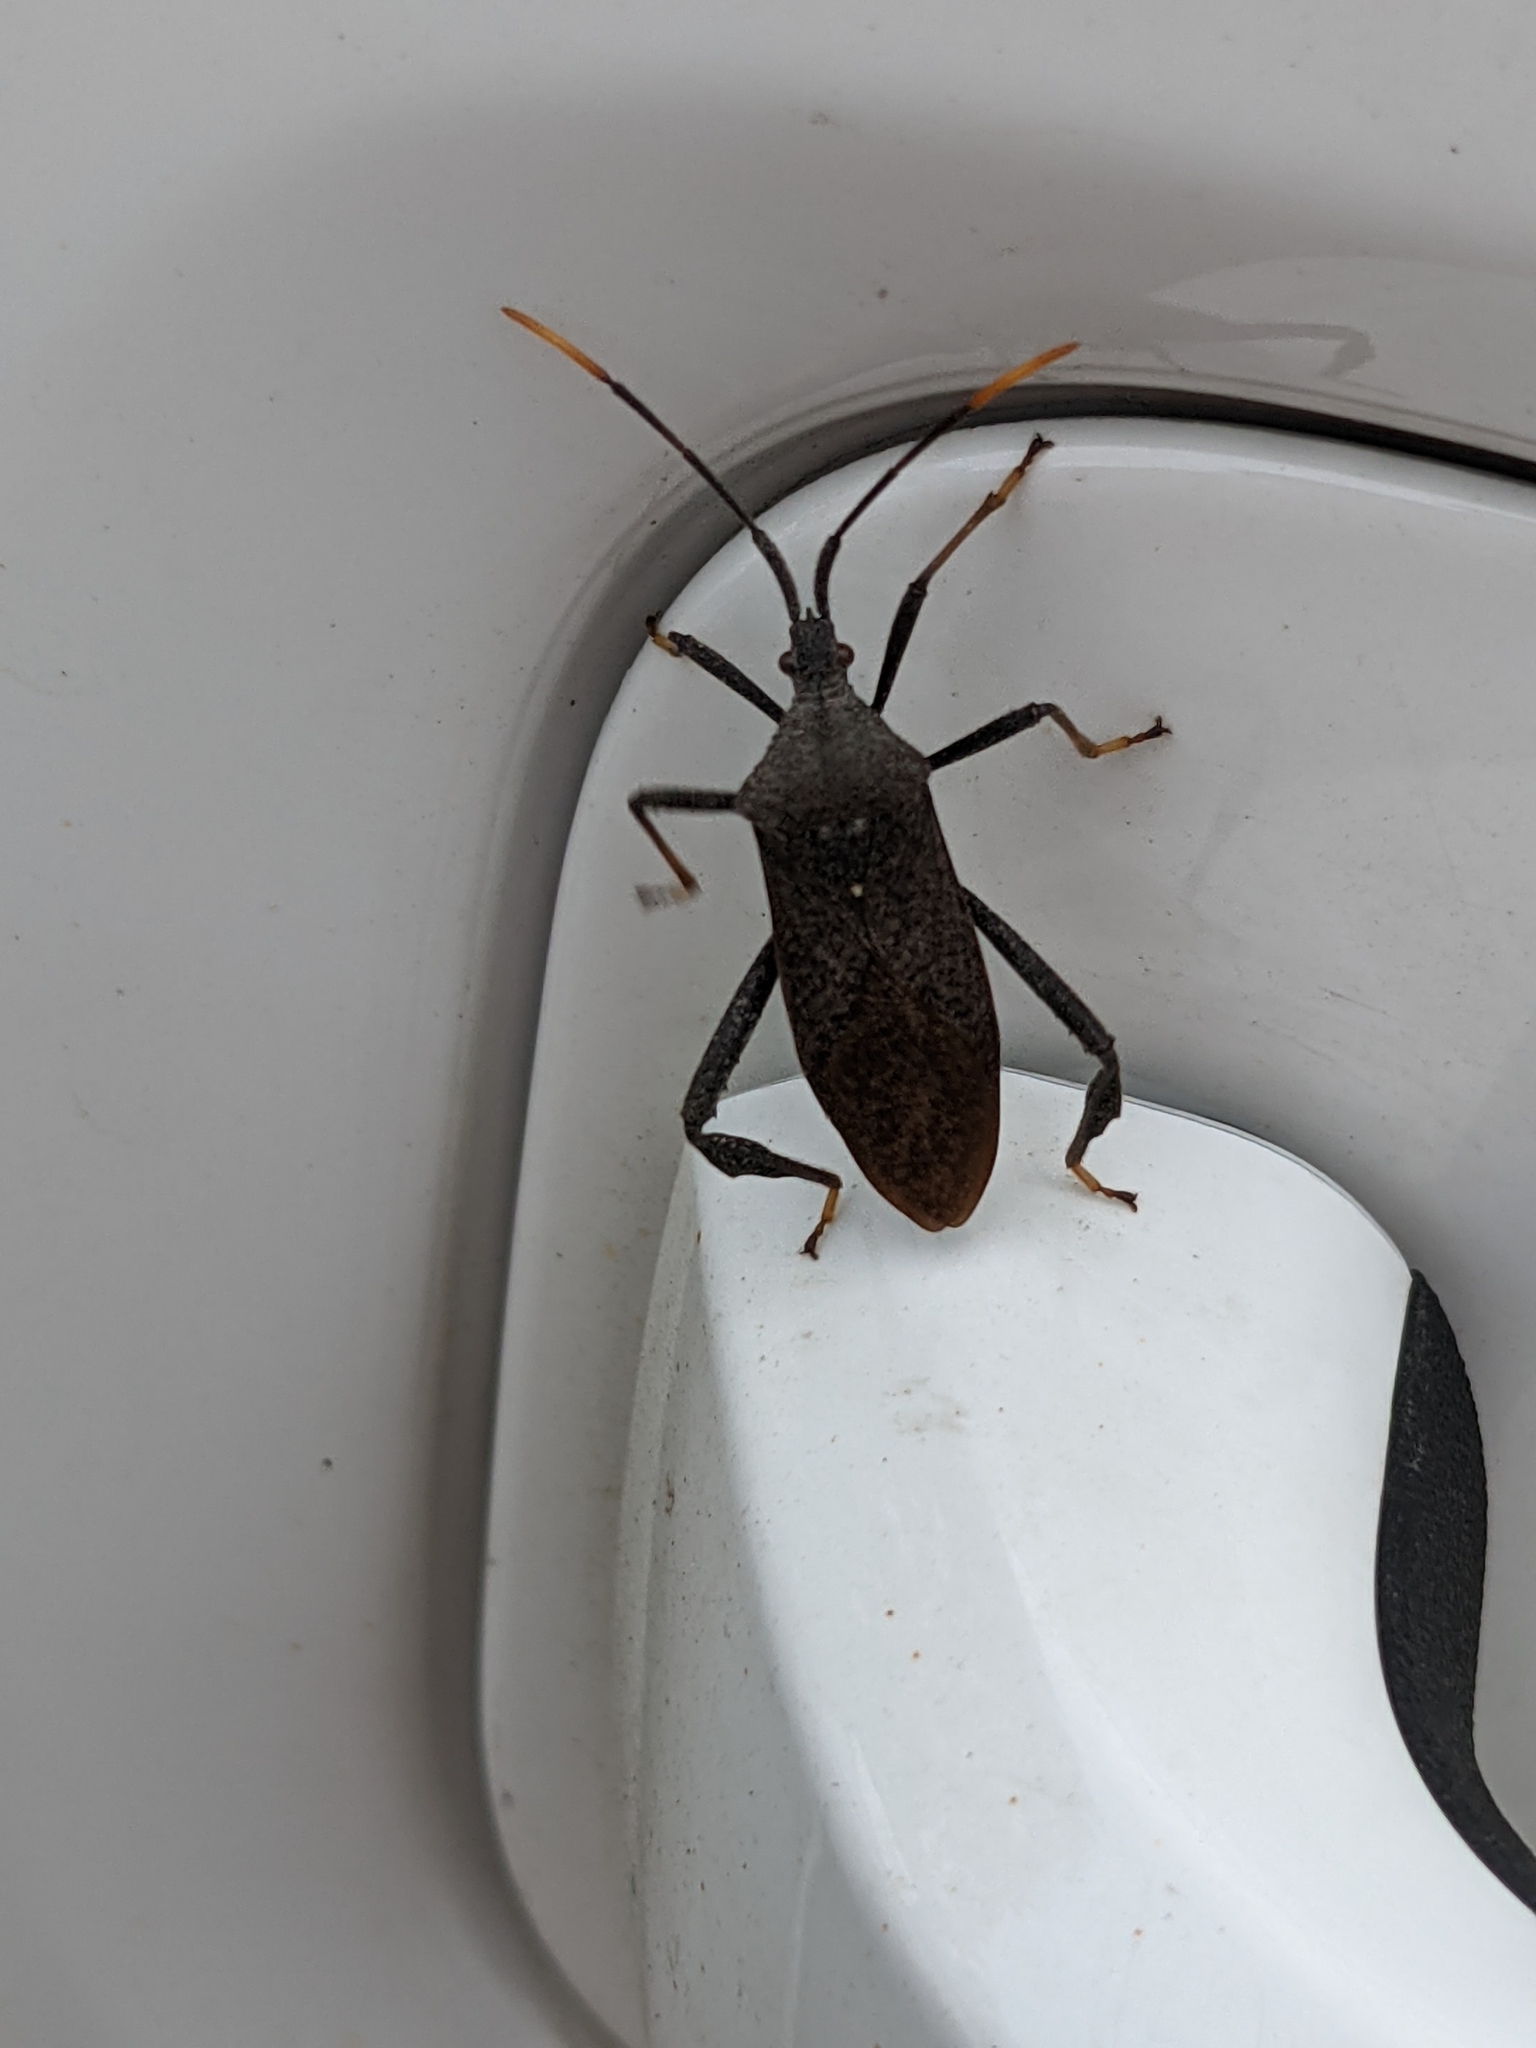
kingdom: Animalia
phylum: Arthropoda
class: Insecta
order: Hemiptera
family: Coreidae
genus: Acanthocephala
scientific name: Acanthocephala terminalis
